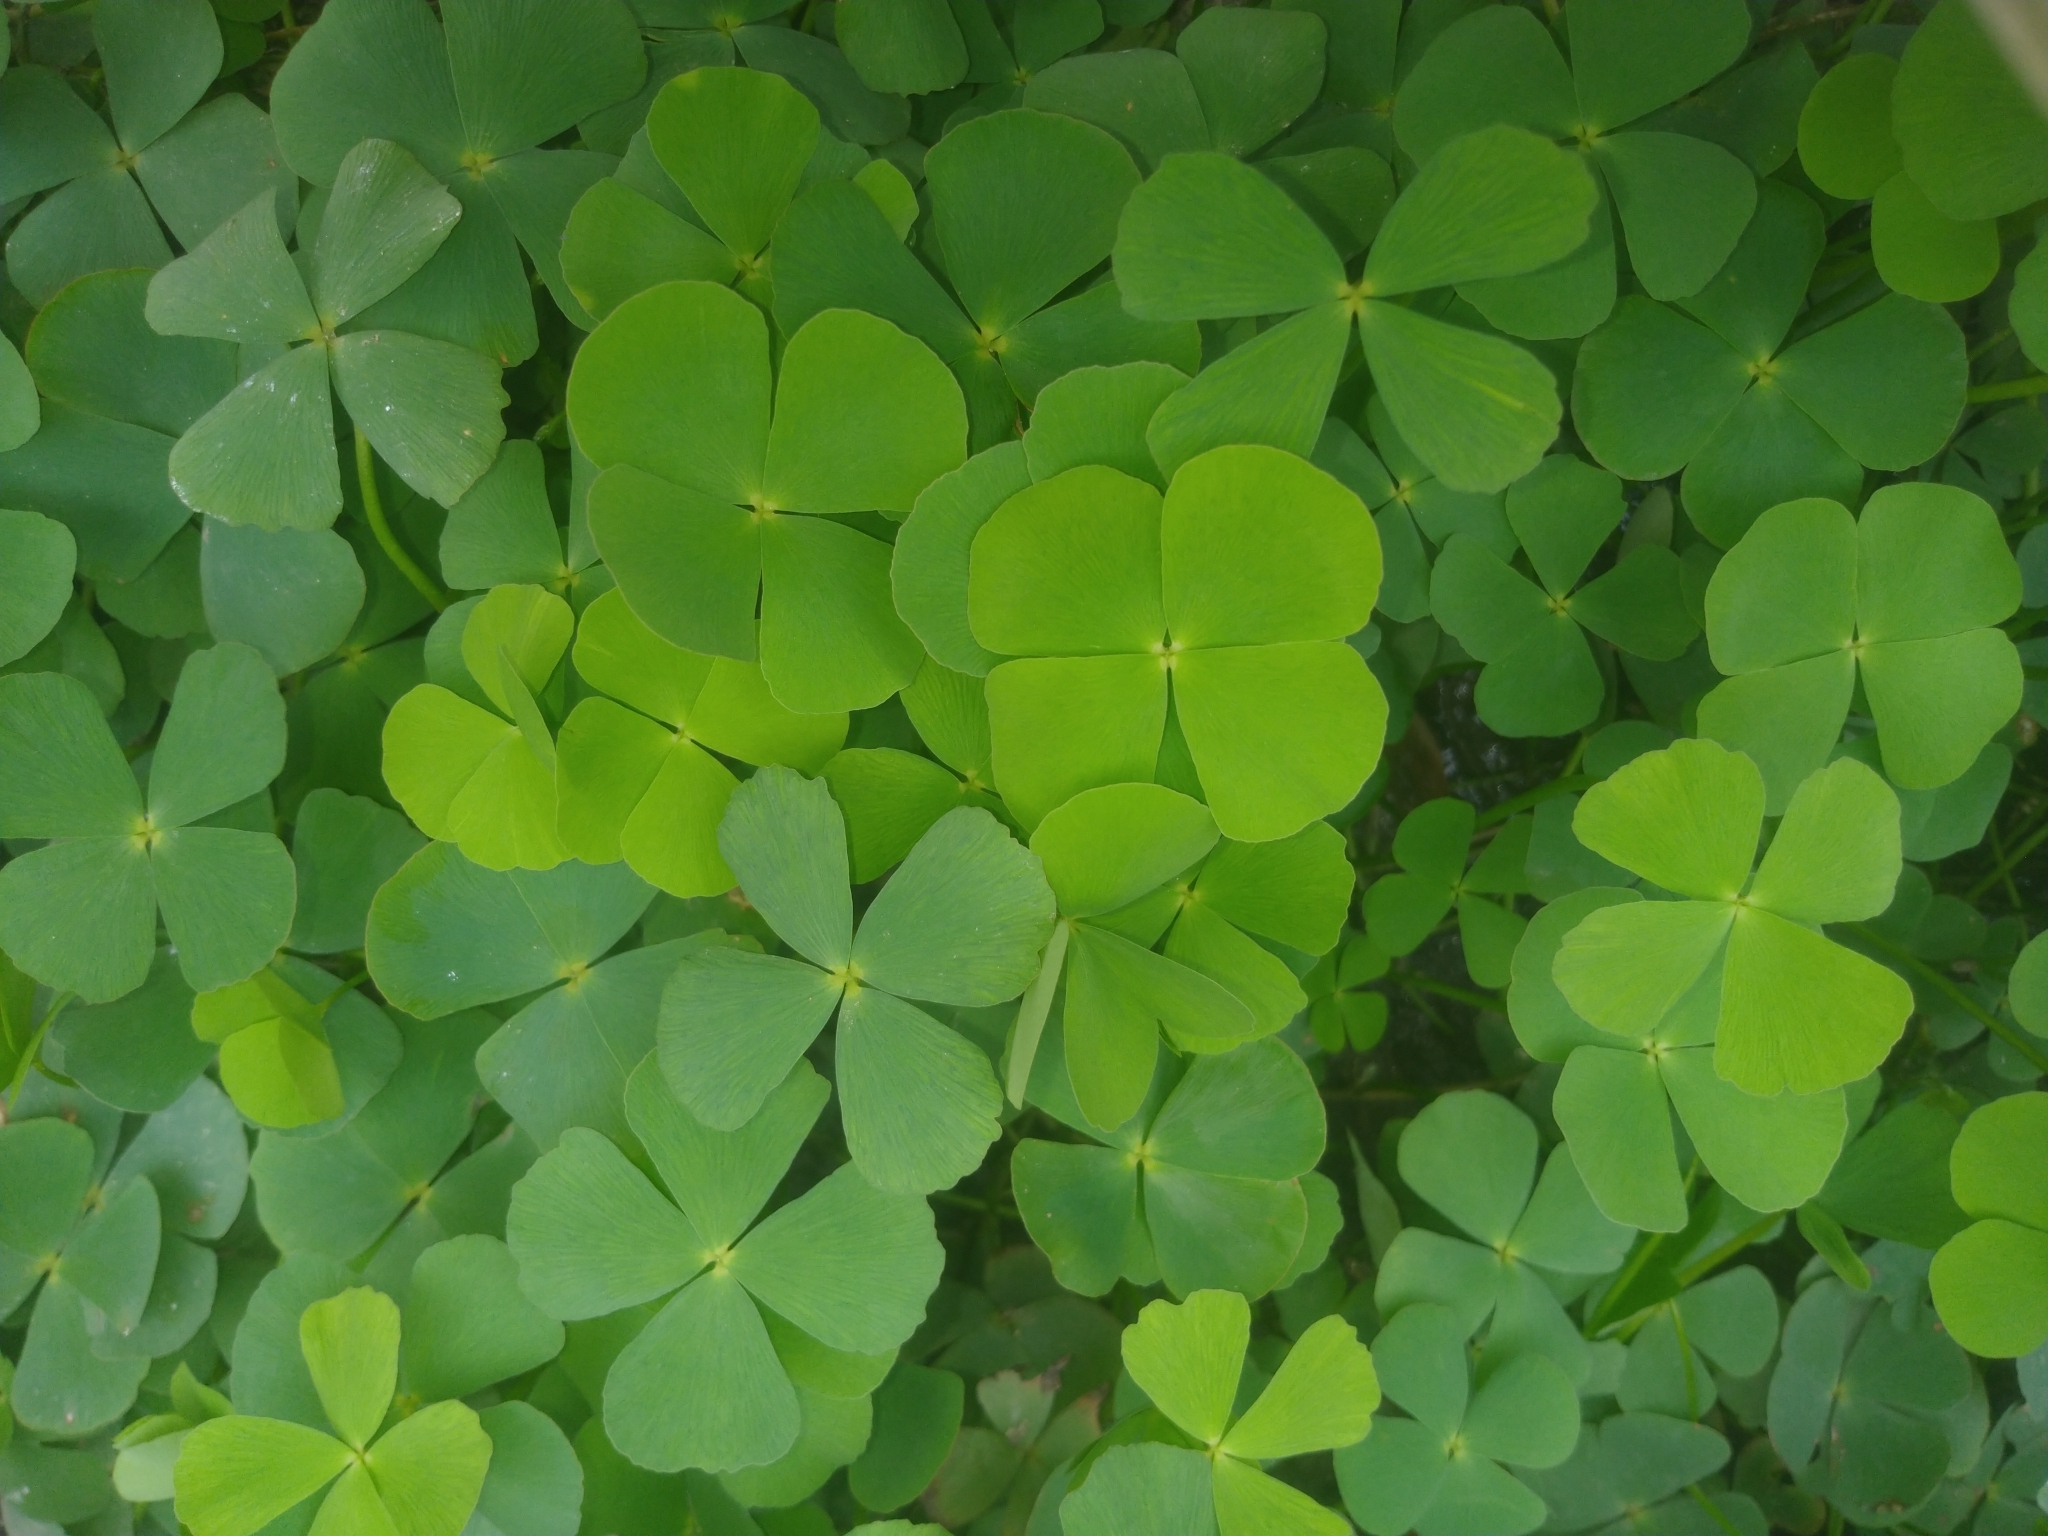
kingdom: Plantae
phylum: Tracheophyta
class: Polypodiopsida
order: Salviniales
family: Marsileaceae
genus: Marsilea
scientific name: Marsilea minuta
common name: Dwarf waterclover
